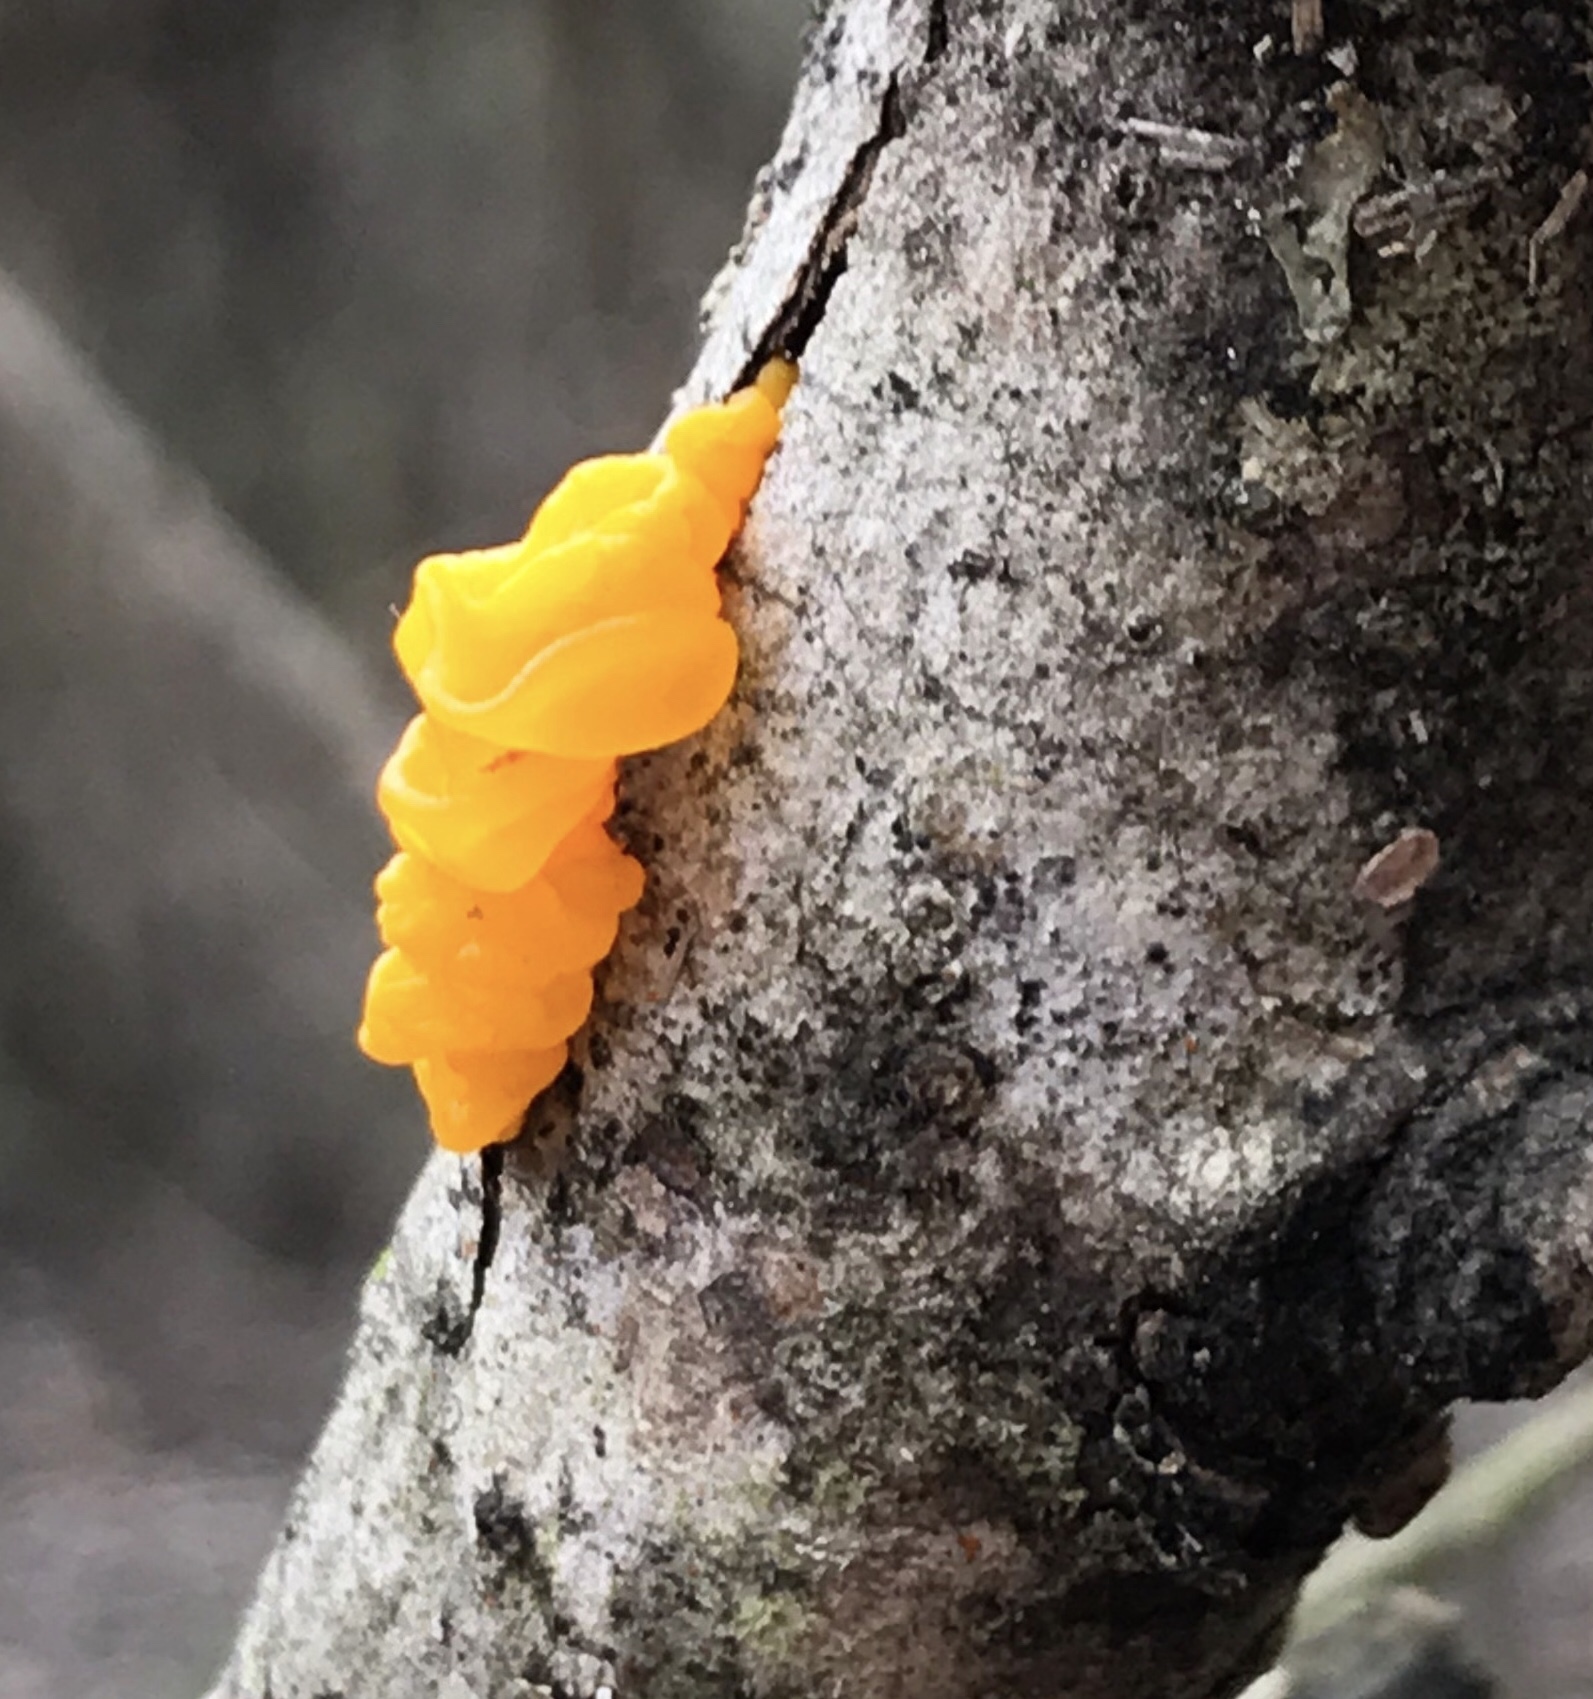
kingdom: Fungi
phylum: Basidiomycota
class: Dacrymycetes
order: Dacrymycetales
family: Dacrymycetaceae
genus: Dacrymyces
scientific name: Dacrymyces chrysospermus
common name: Orange jelly spot
